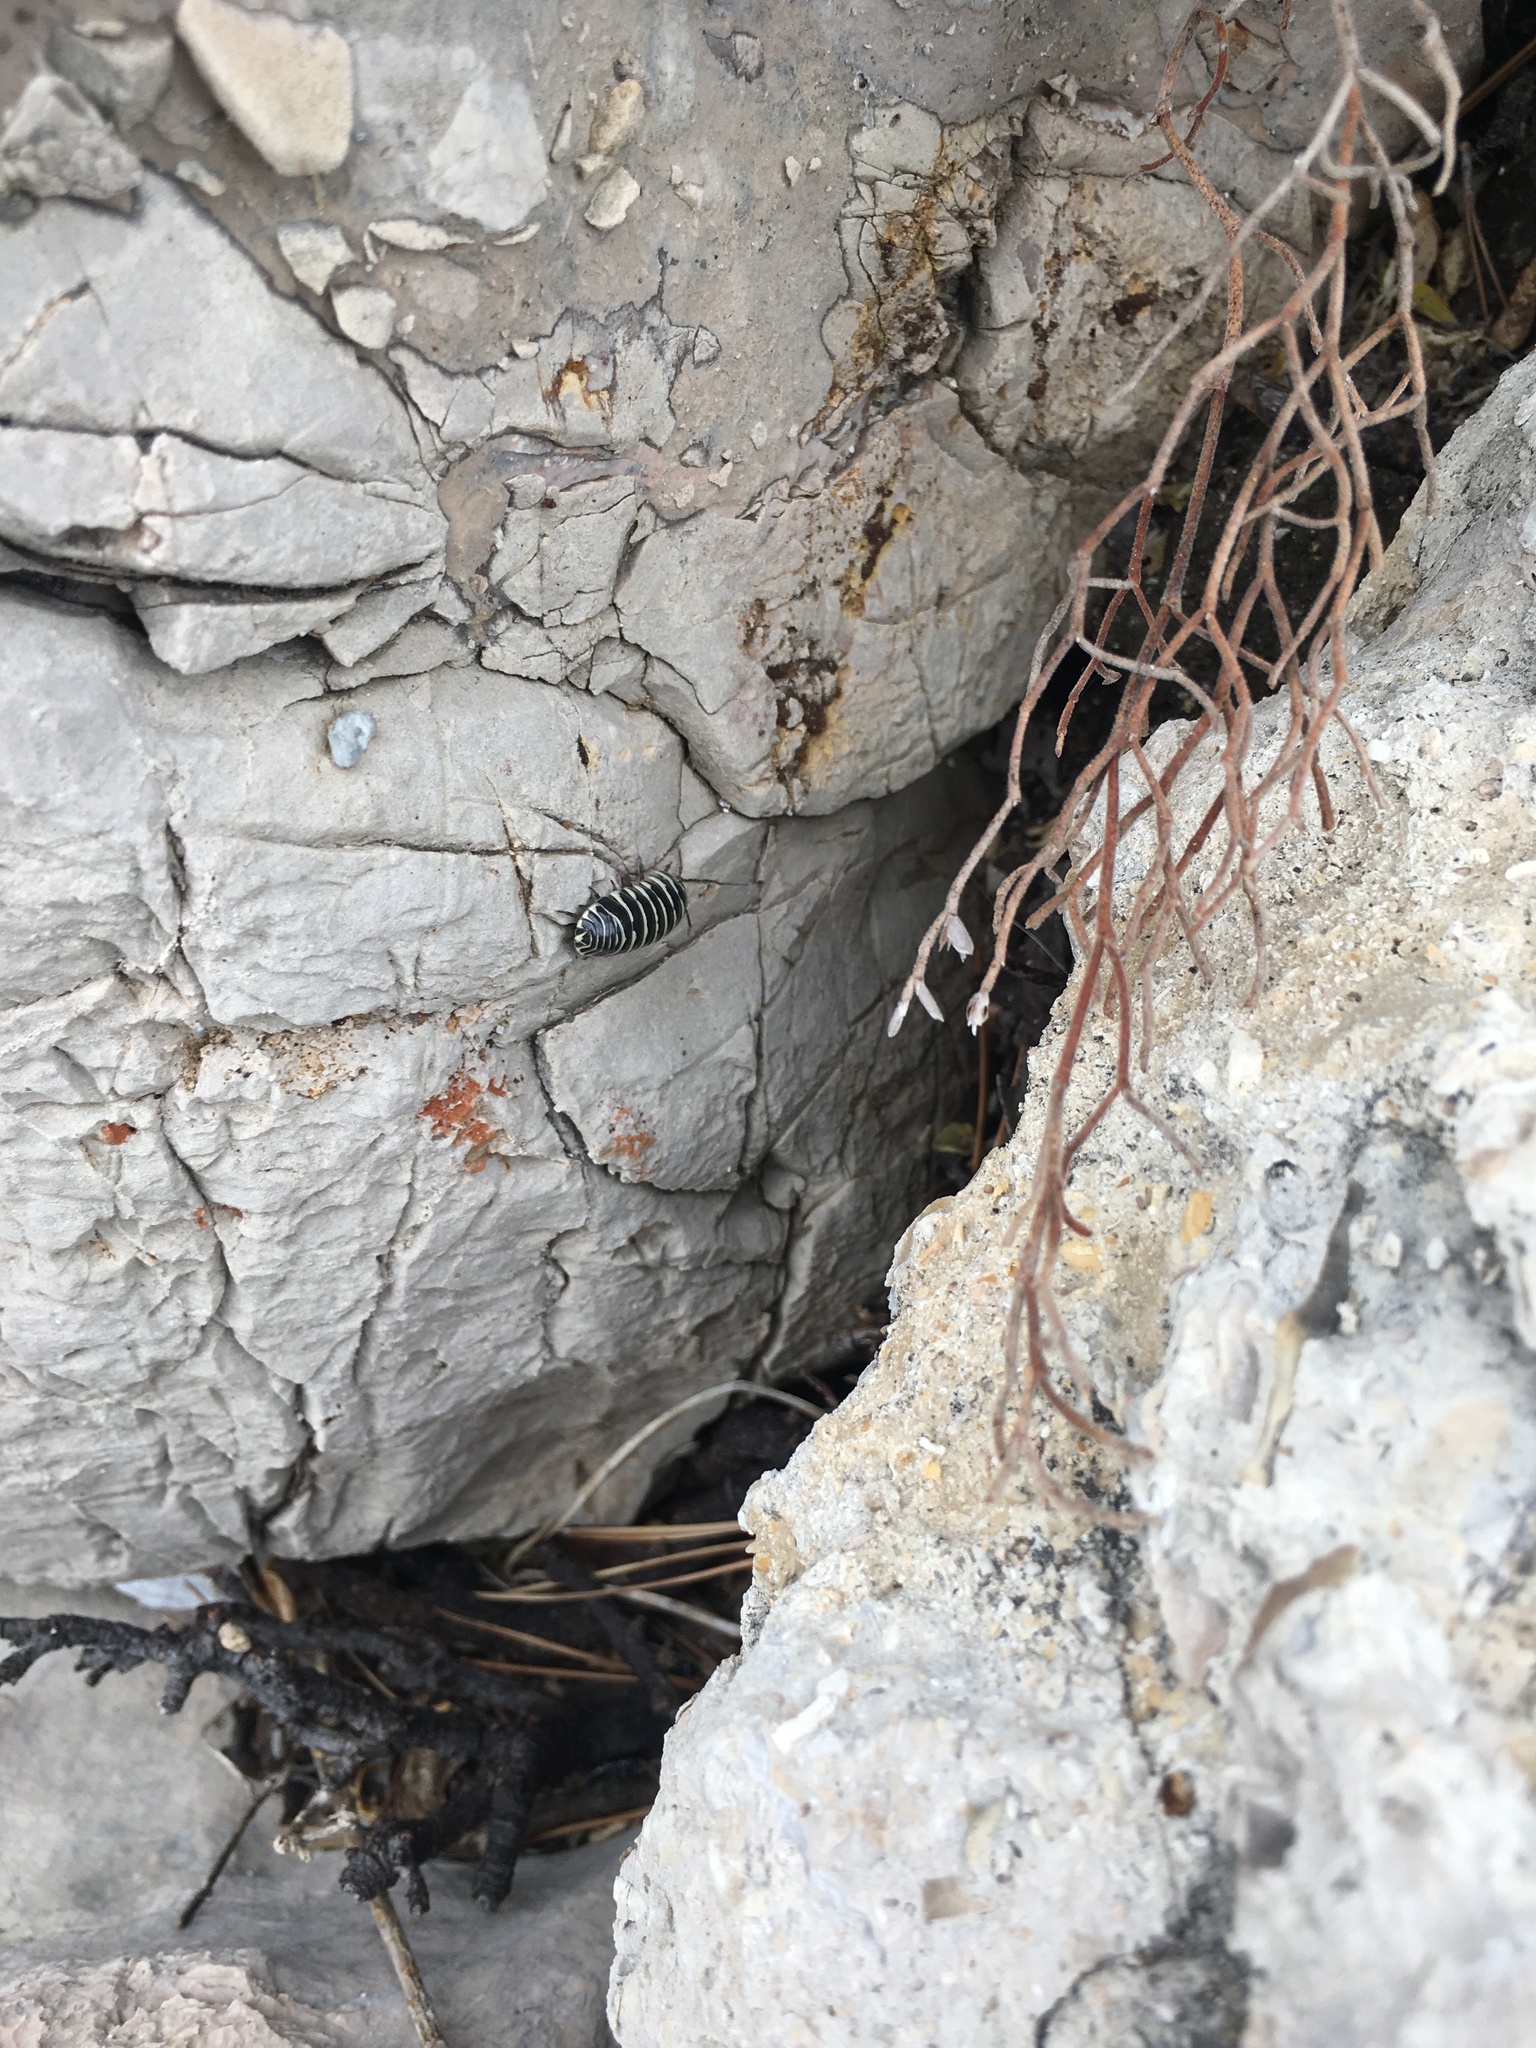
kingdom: Animalia
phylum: Arthropoda
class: Malacostraca
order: Isopoda
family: Armadillidiidae
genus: Armadillidium
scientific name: Armadillidium maculatum
